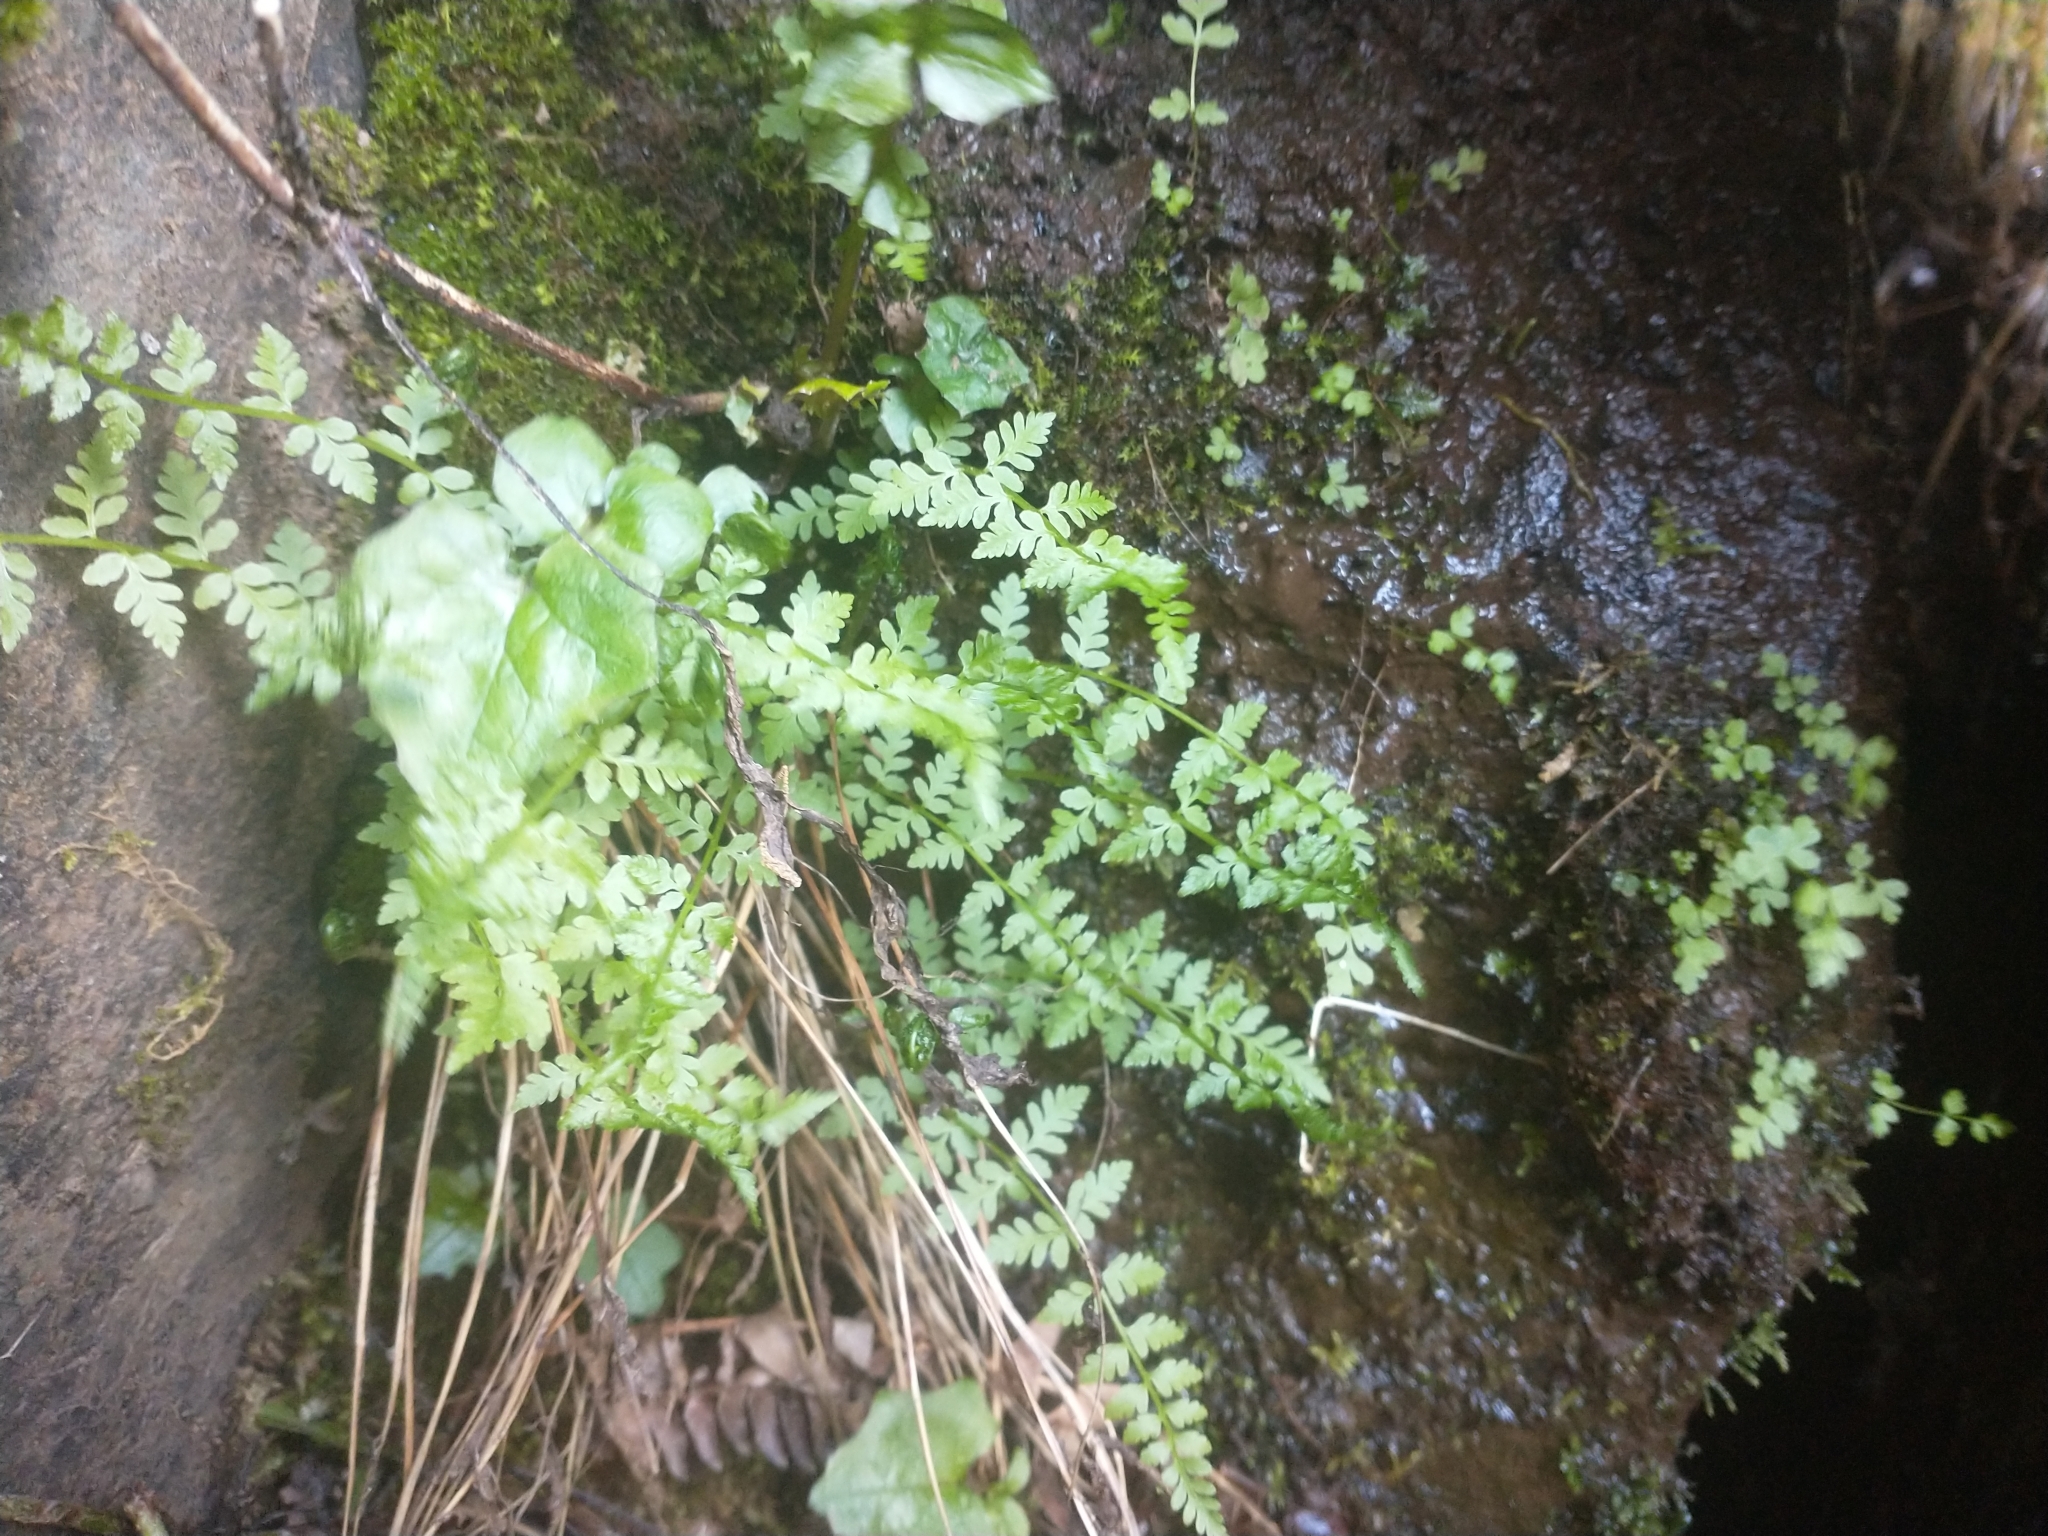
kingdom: Plantae
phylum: Tracheophyta
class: Polypodiopsida
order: Polypodiales
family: Cystopteridaceae
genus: Cystopteris
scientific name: Cystopteris fragilis
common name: Brittle bladder fern
